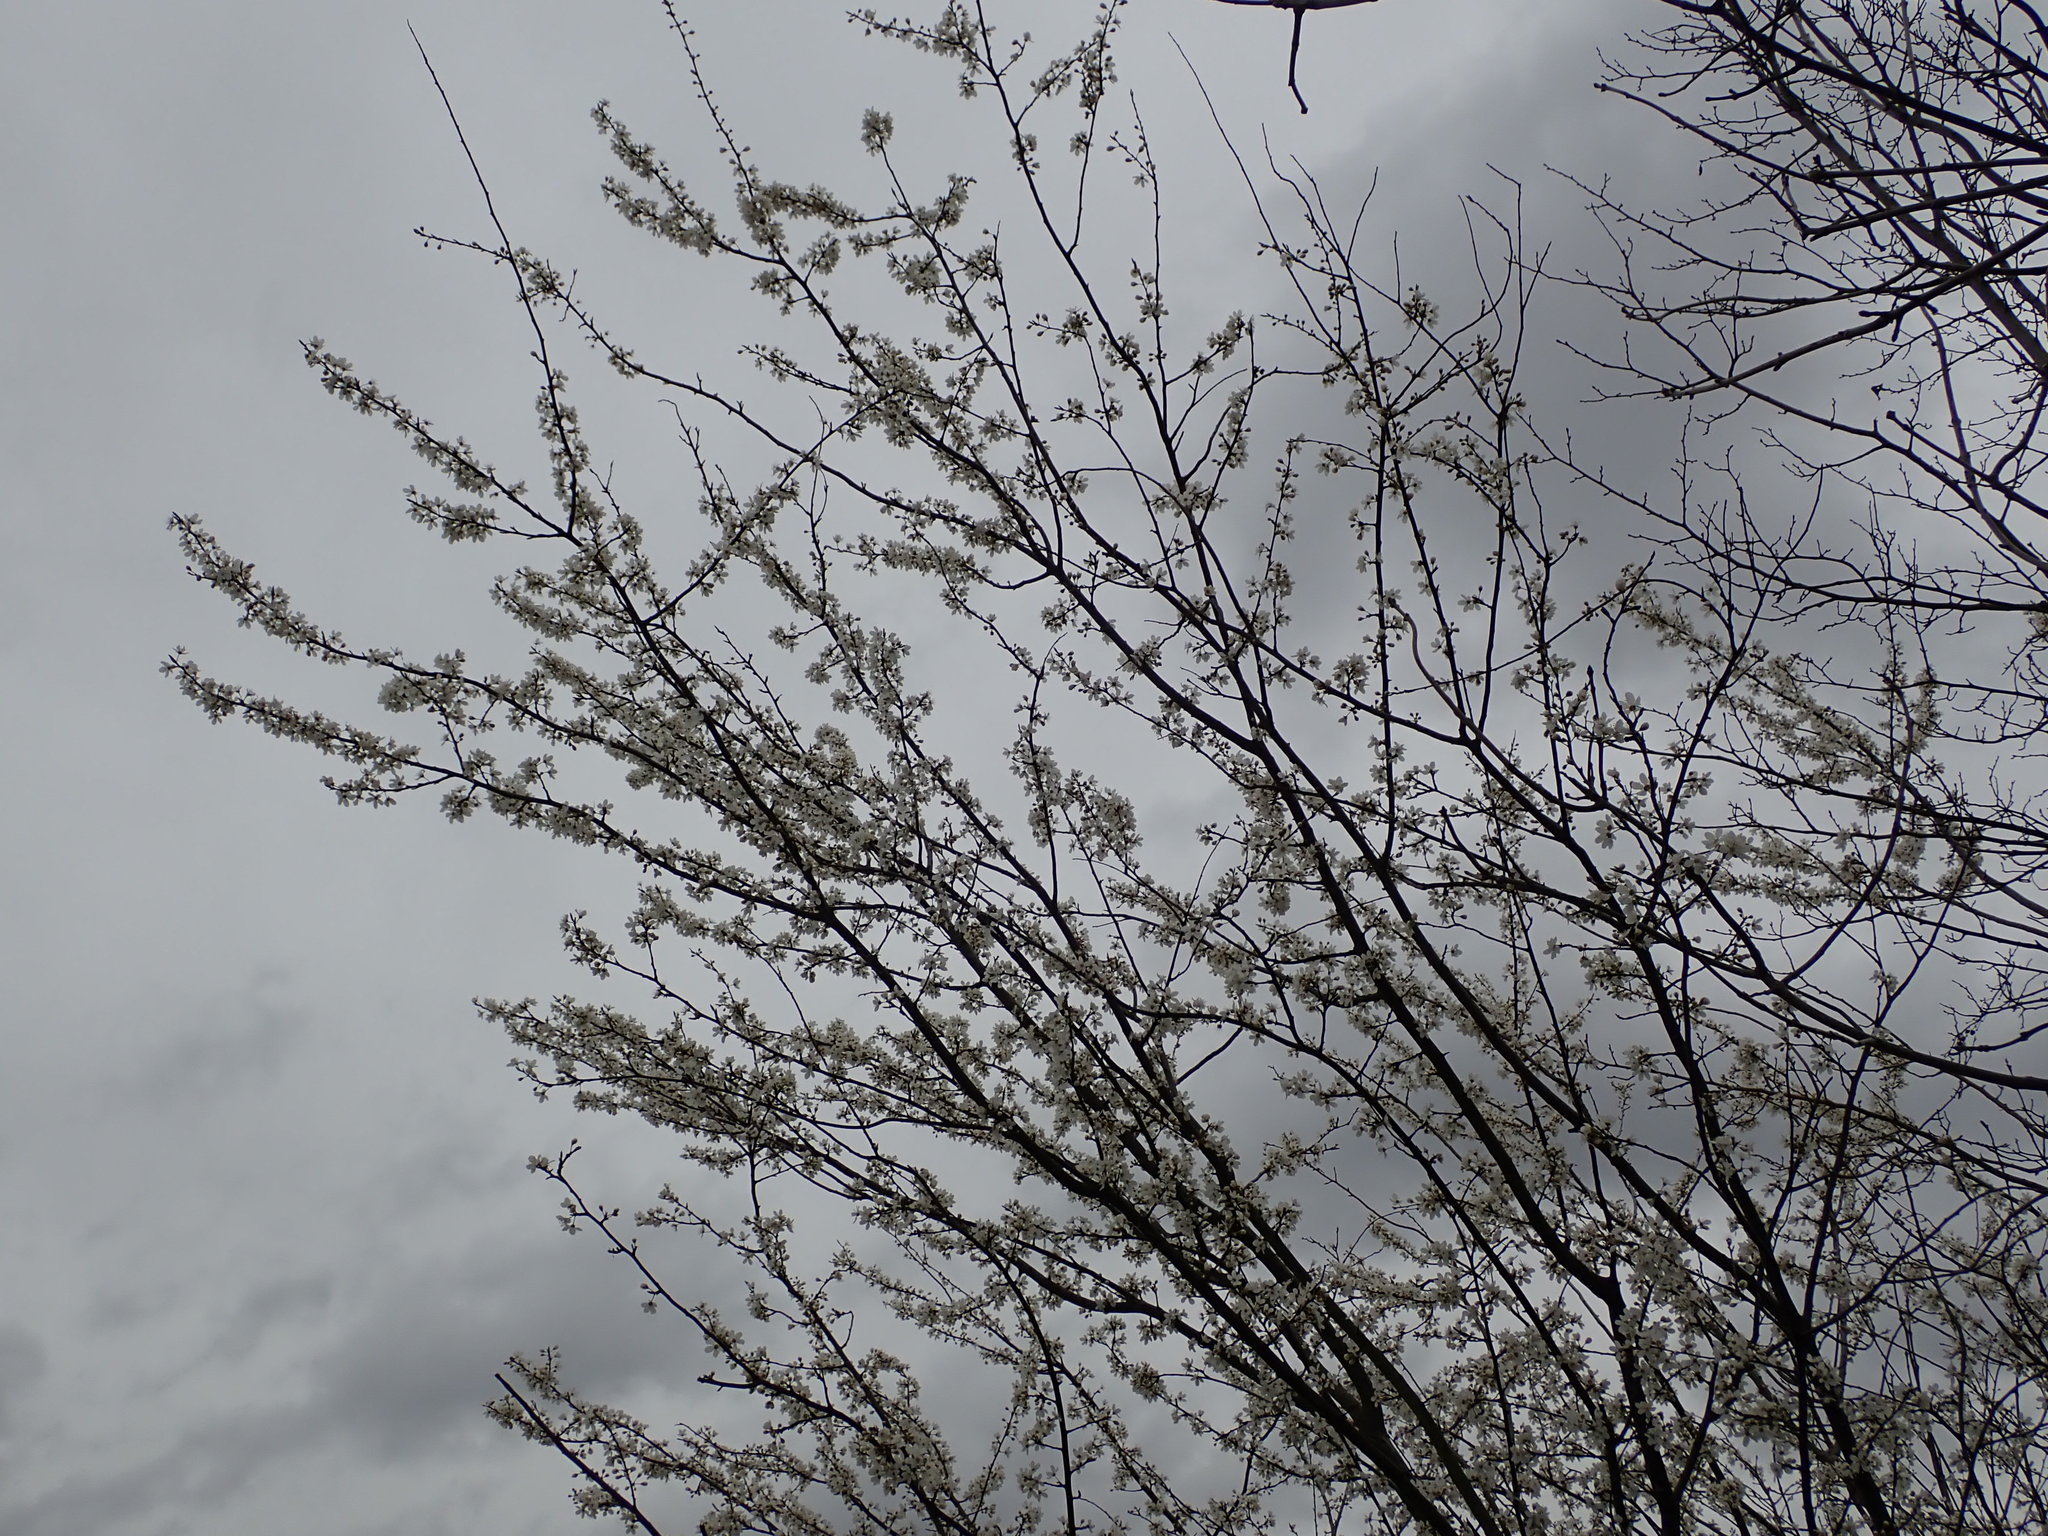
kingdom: Plantae
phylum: Tracheophyta
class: Magnoliopsida
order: Rosales
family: Rosaceae
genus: Prunus
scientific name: Prunus cerasifera
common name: Cherry plum
